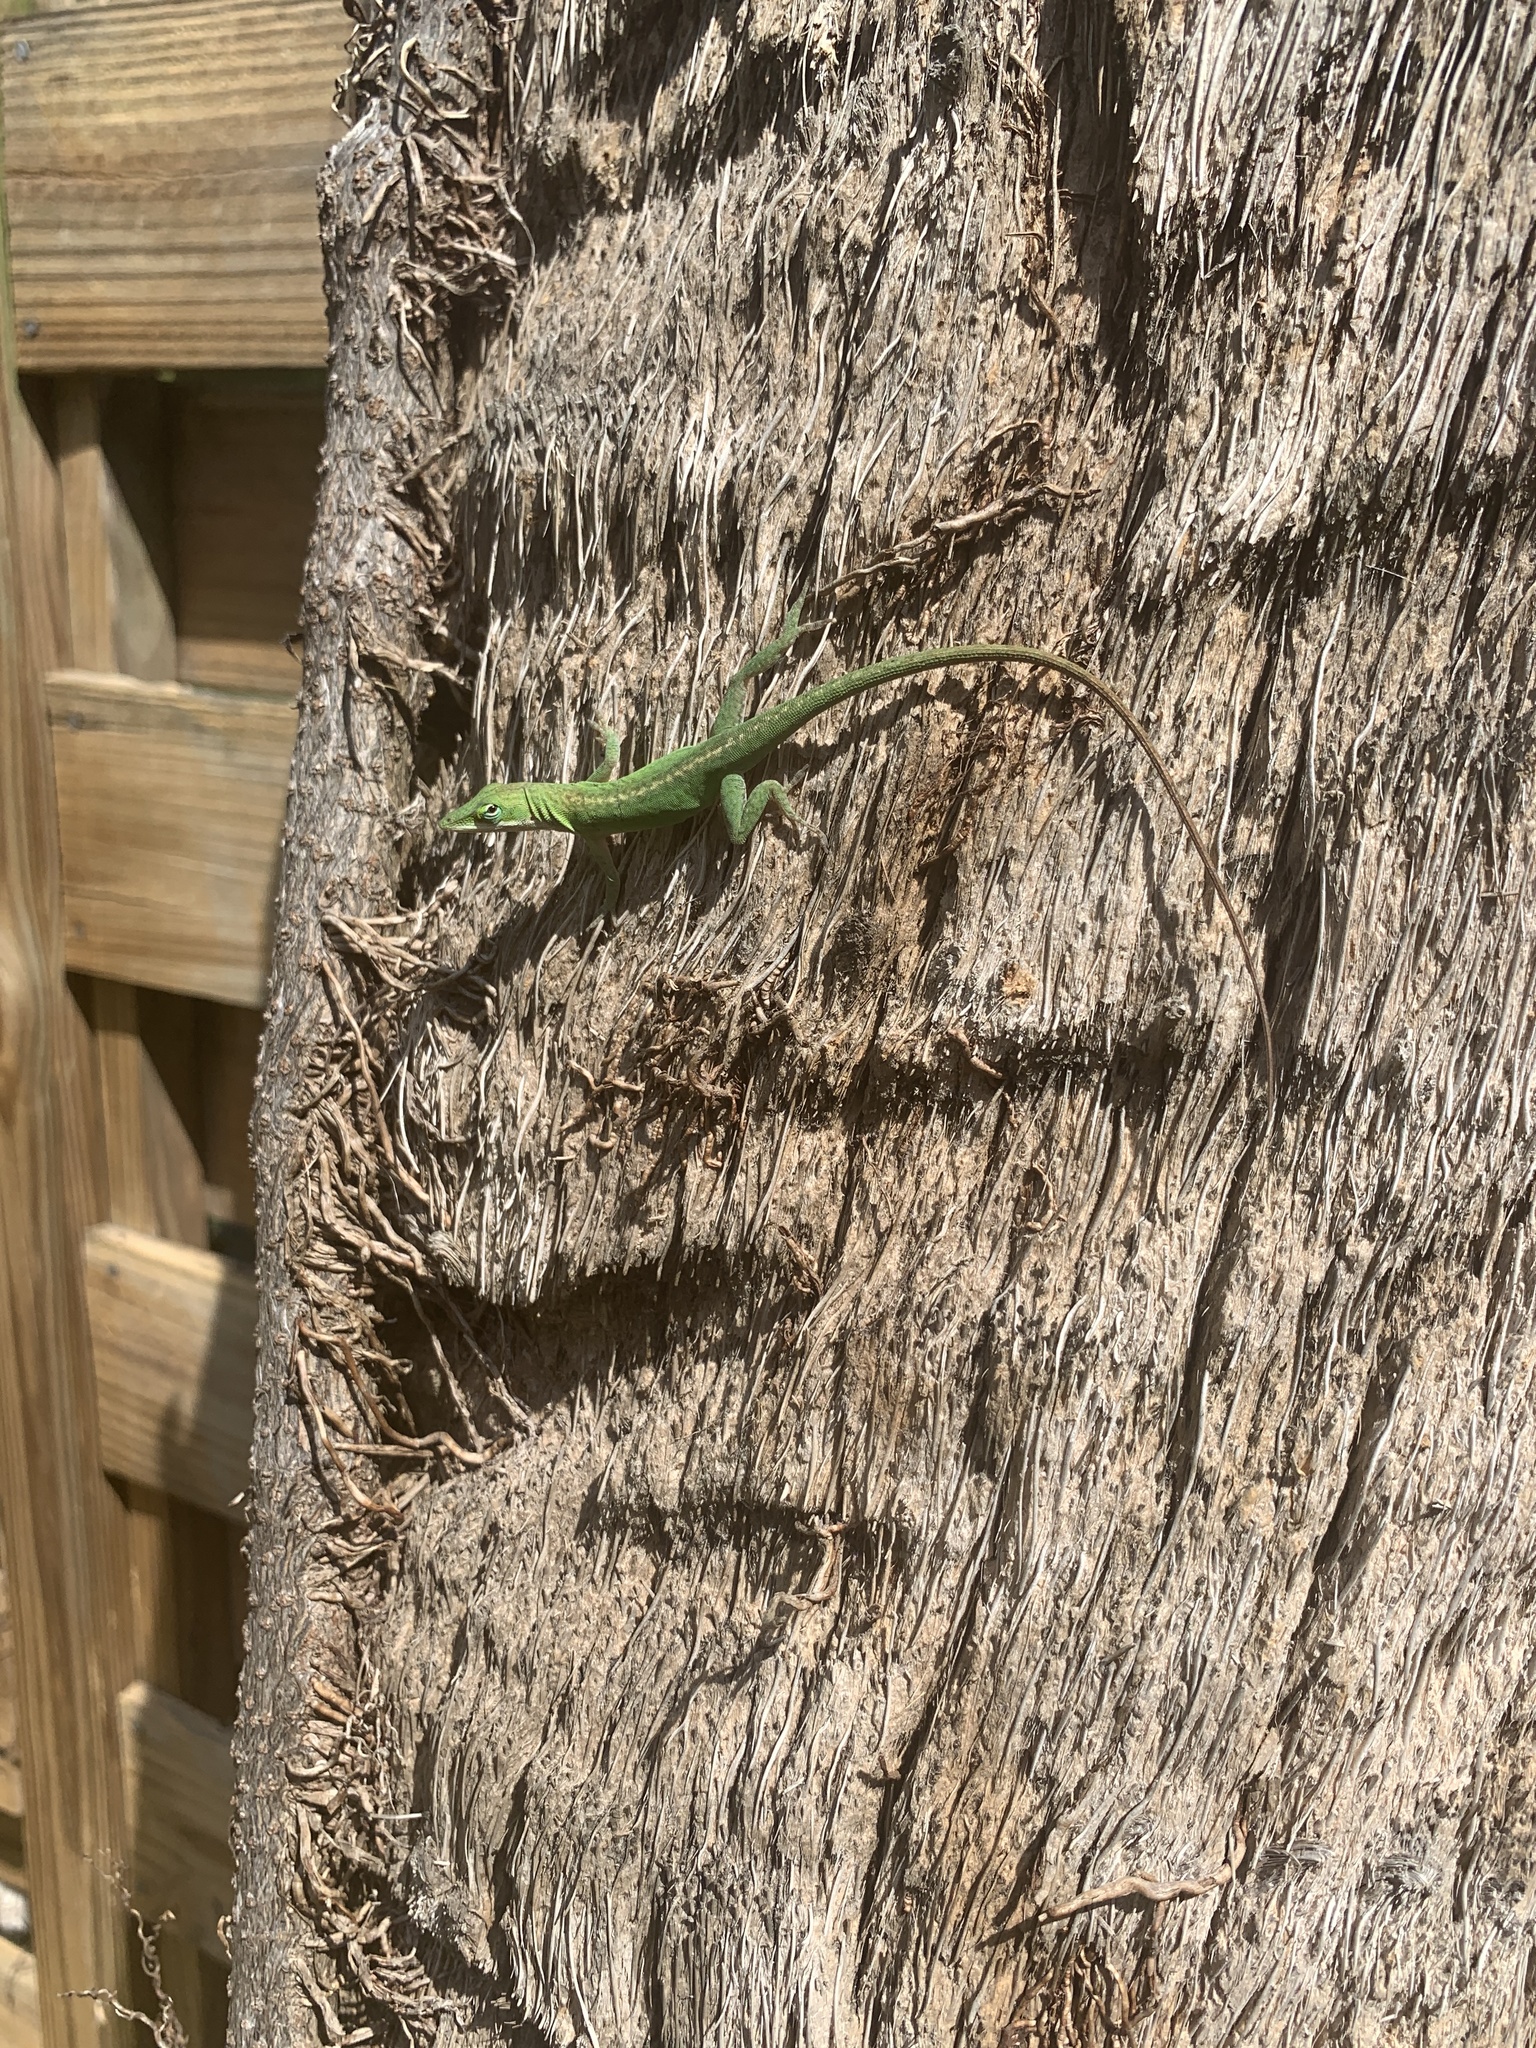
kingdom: Animalia
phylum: Chordata
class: Squamata
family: Dactyloidae
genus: Anolis
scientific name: Anolis carolinensis
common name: Green anole
